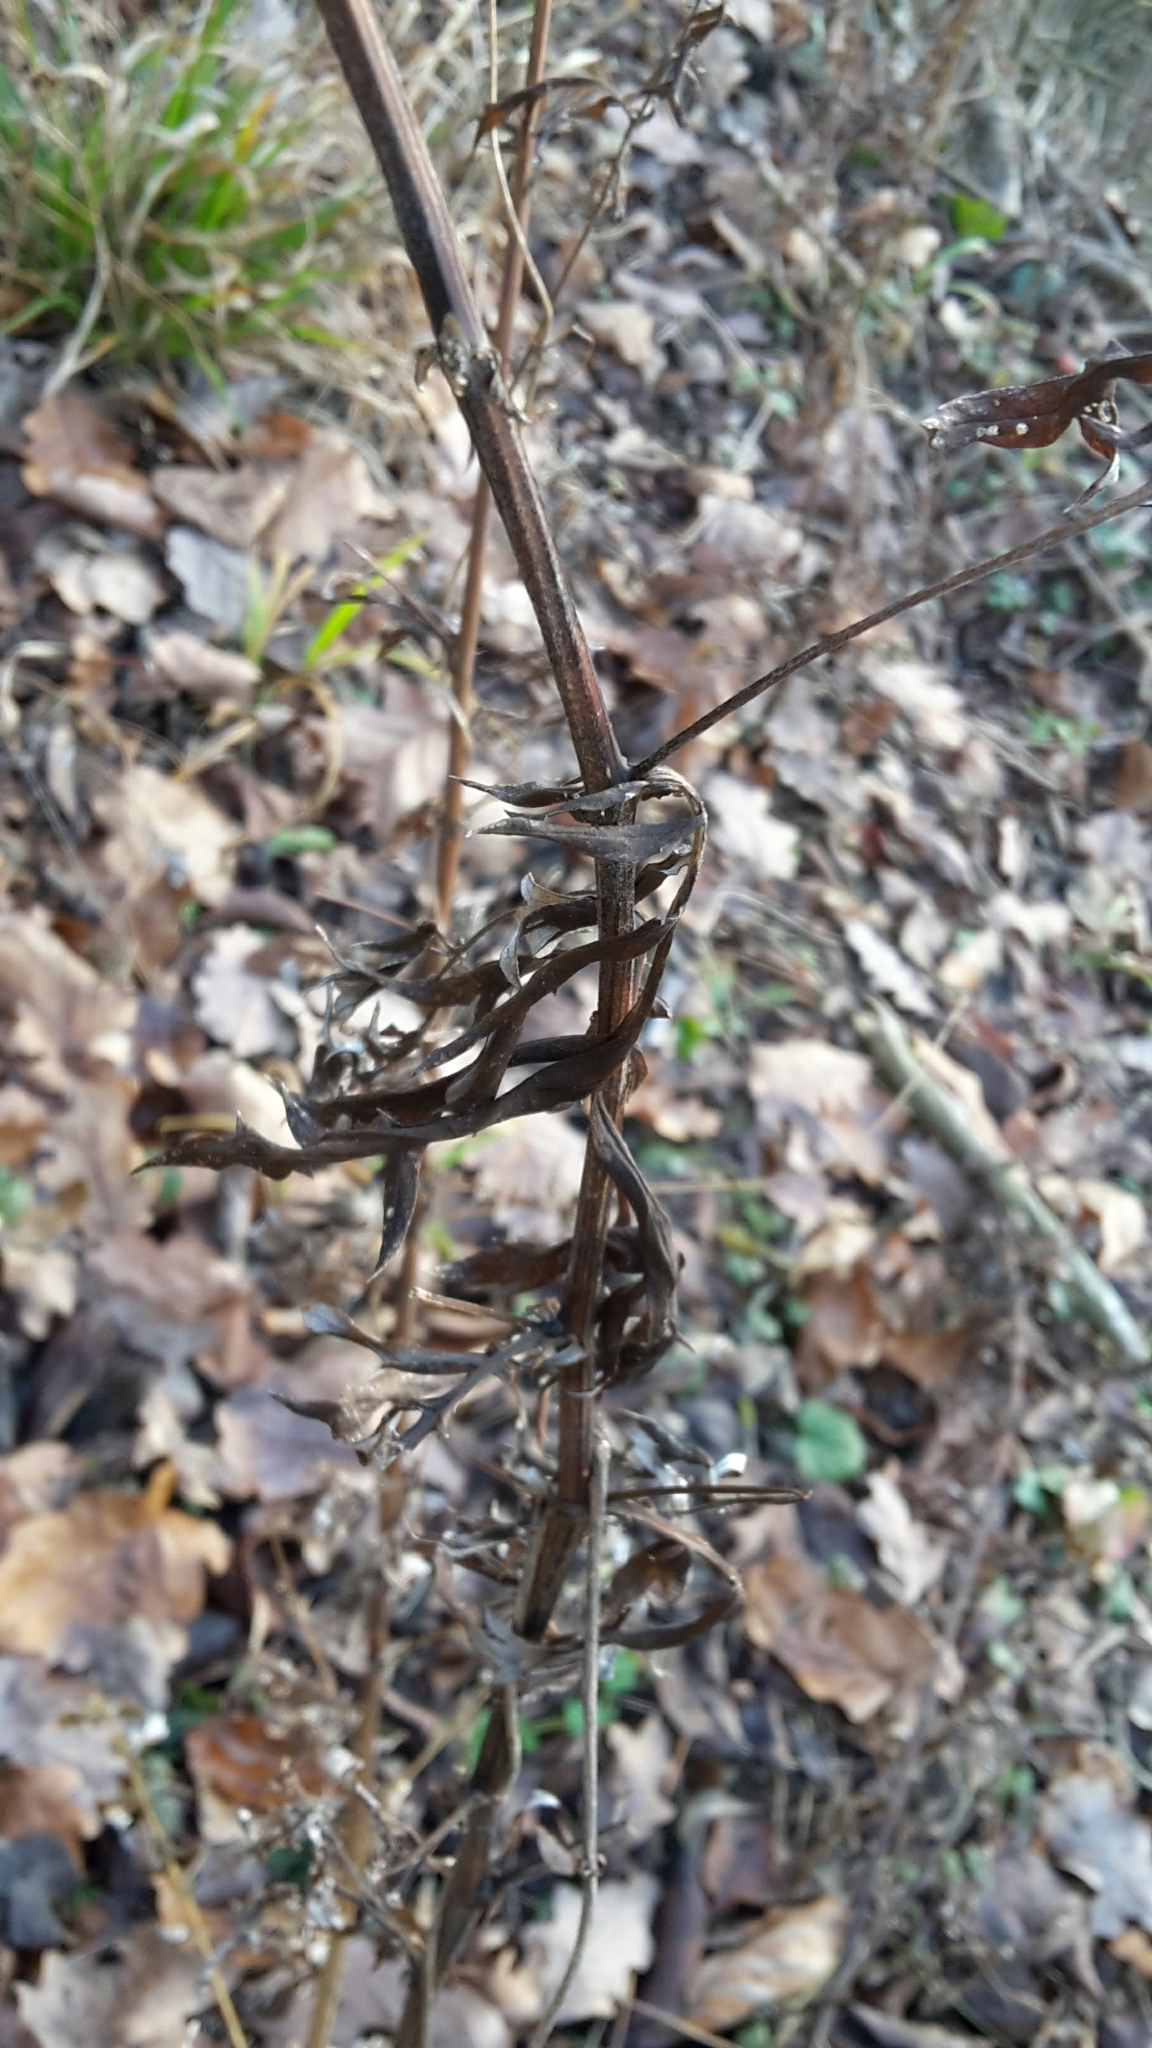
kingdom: Plantae
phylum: Tracheophyta
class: Magnoliopsida
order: Asterales
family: Asteraceae
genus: Artemisia
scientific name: Artemisia vulgaris
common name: Mugwort
